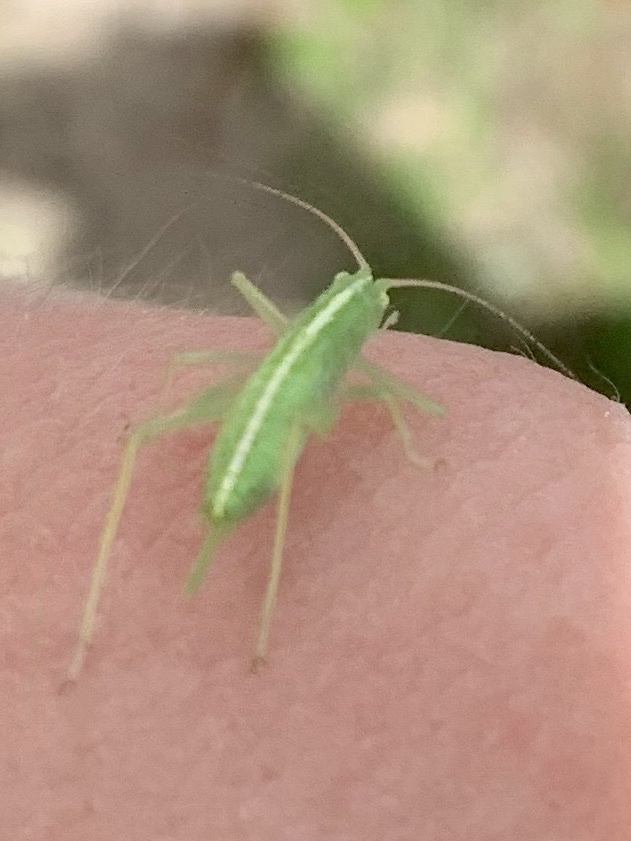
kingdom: Animalia
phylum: Arthropoda
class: Insecta
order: Orthoptera
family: Tettigoniidae
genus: Meconema
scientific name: Meconema thalassinum
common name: Oak bush-cricket
